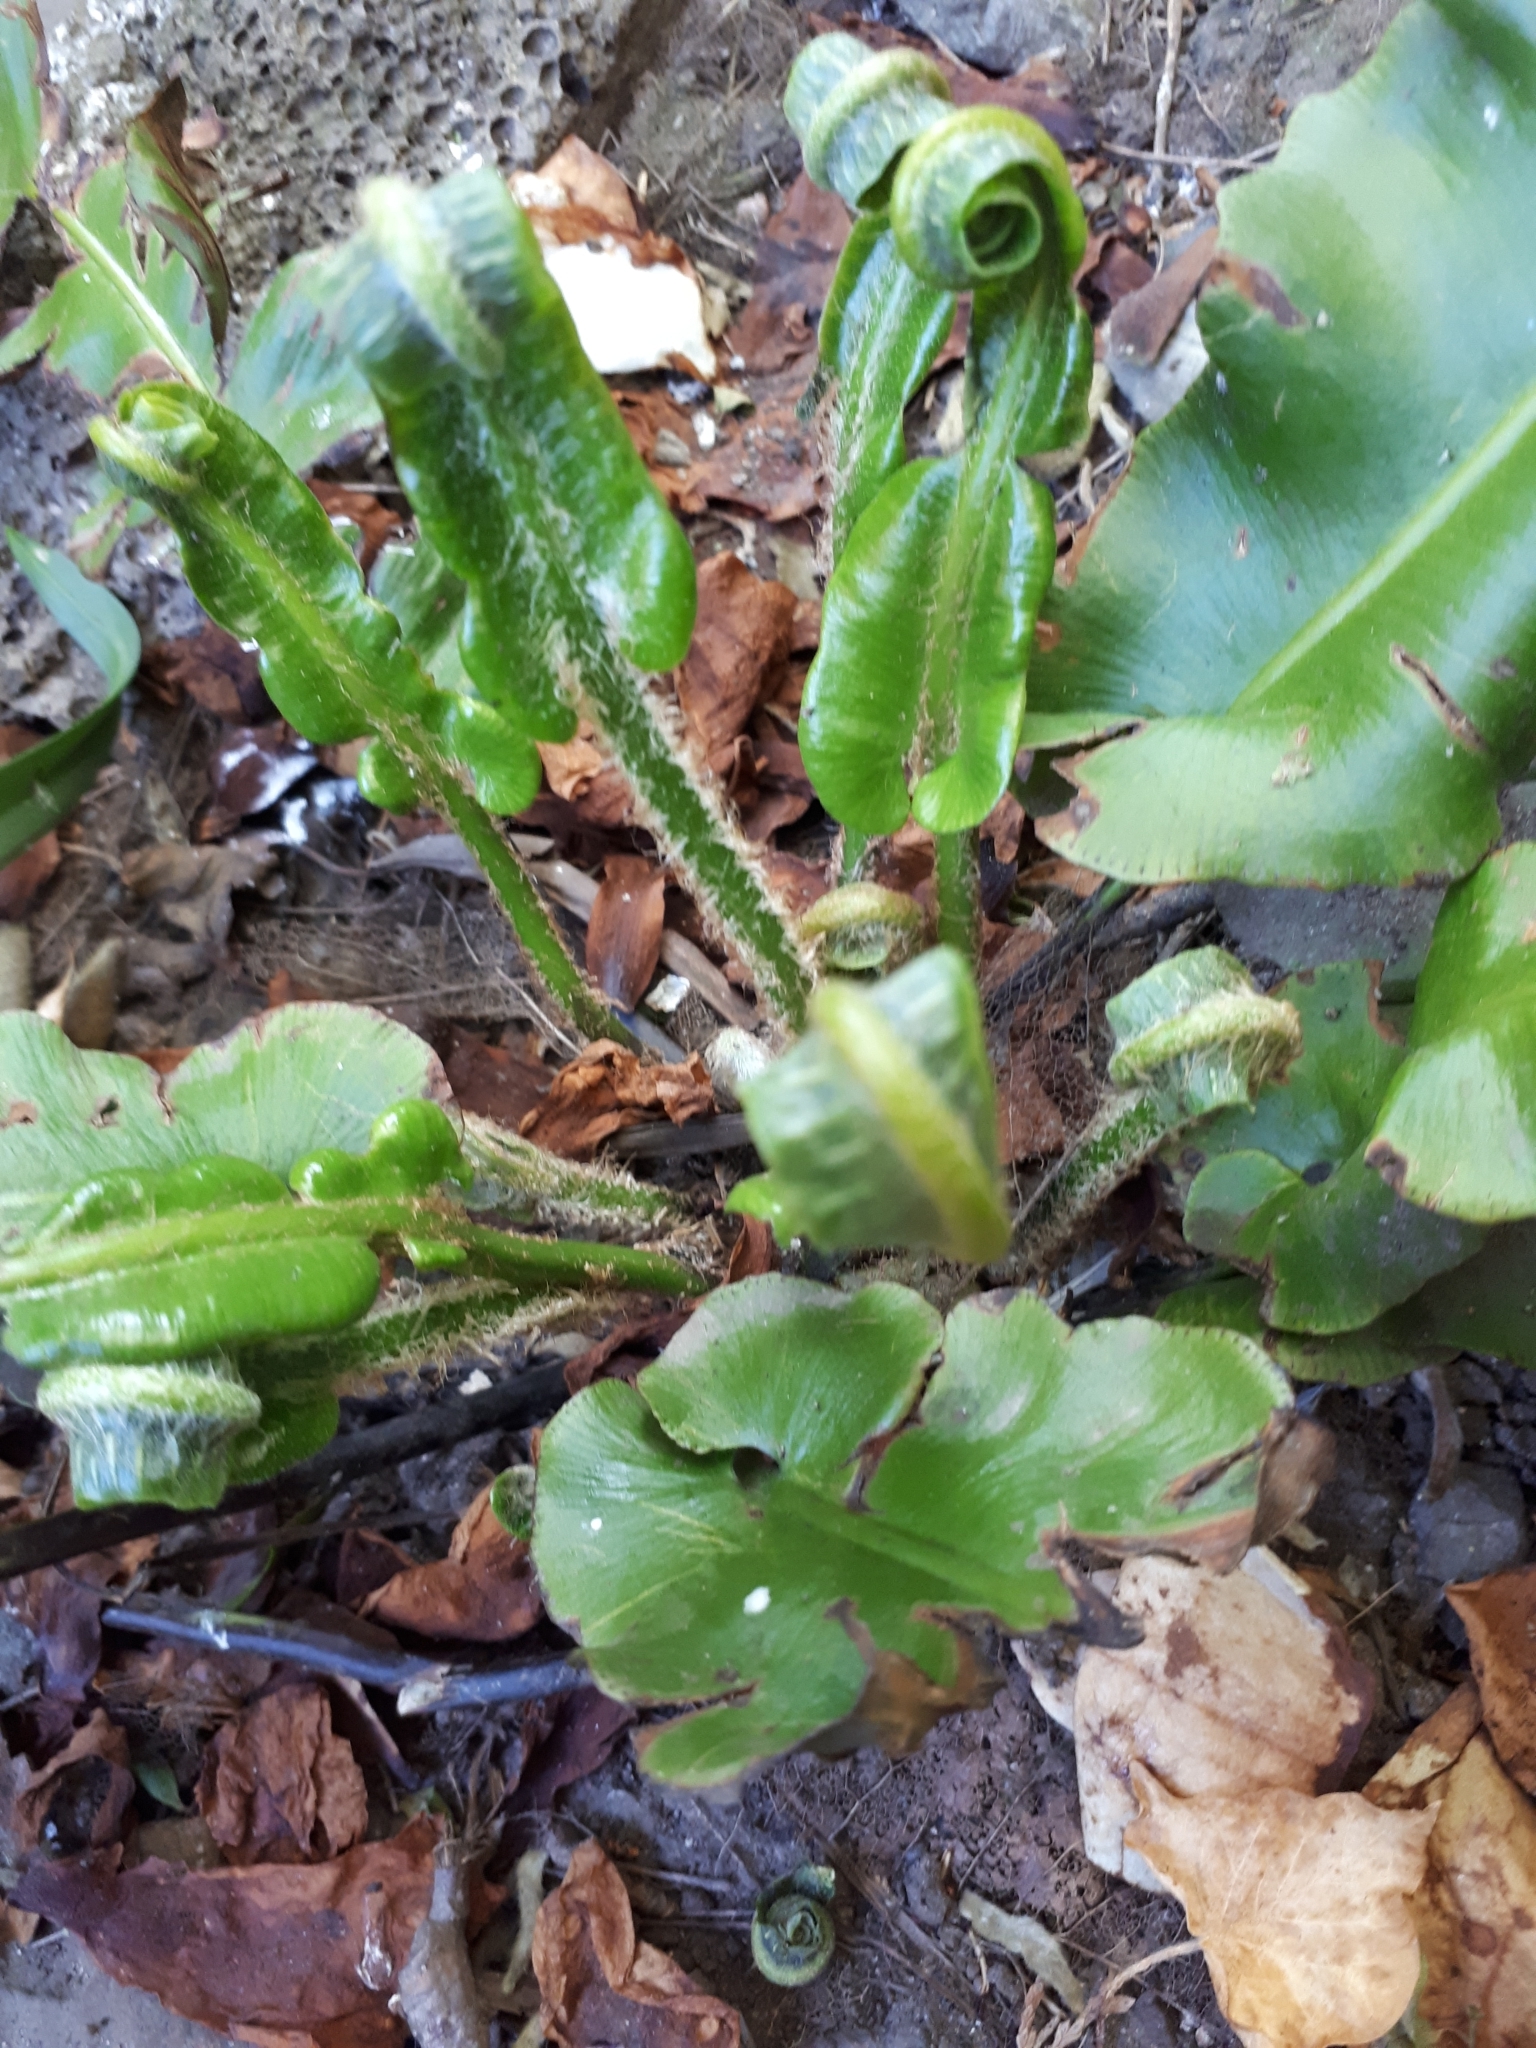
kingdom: Plantae
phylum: Tracheophyta
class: Polypodiopsida
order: Polypodiales
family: Aspleniaceae
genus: Asplenium
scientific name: Asplenium scolopendrium
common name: Hart's-tongue fern
